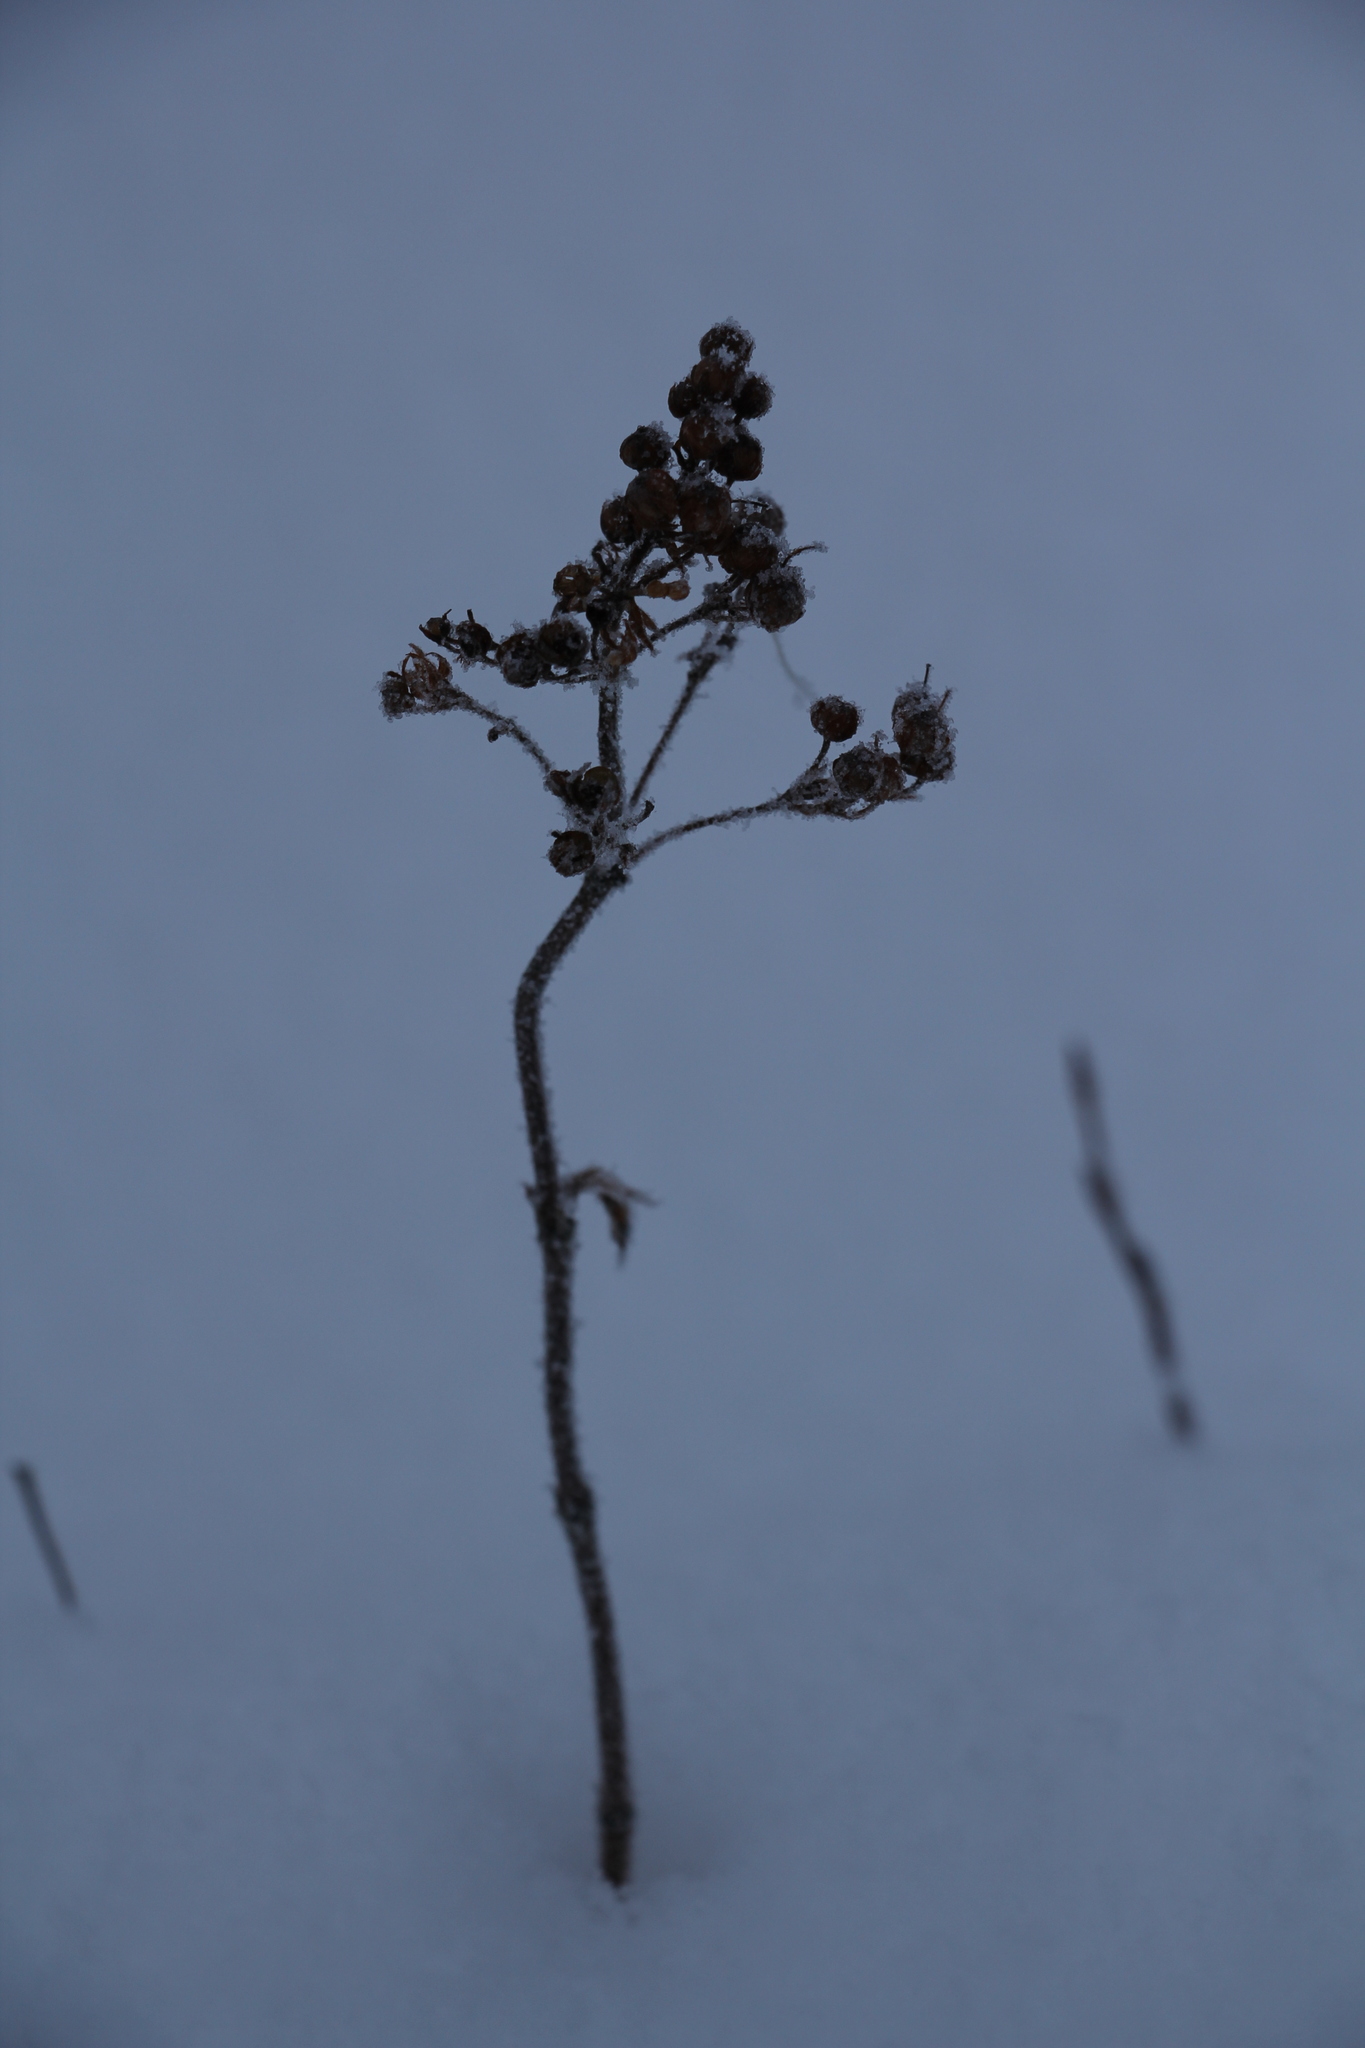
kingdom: Plantae
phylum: Tracheophyta
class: Magnoliopsida
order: Ericales
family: Primulaceae
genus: Lysimachia
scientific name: Lysimachia vulgaris
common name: Yellow loosestrife
